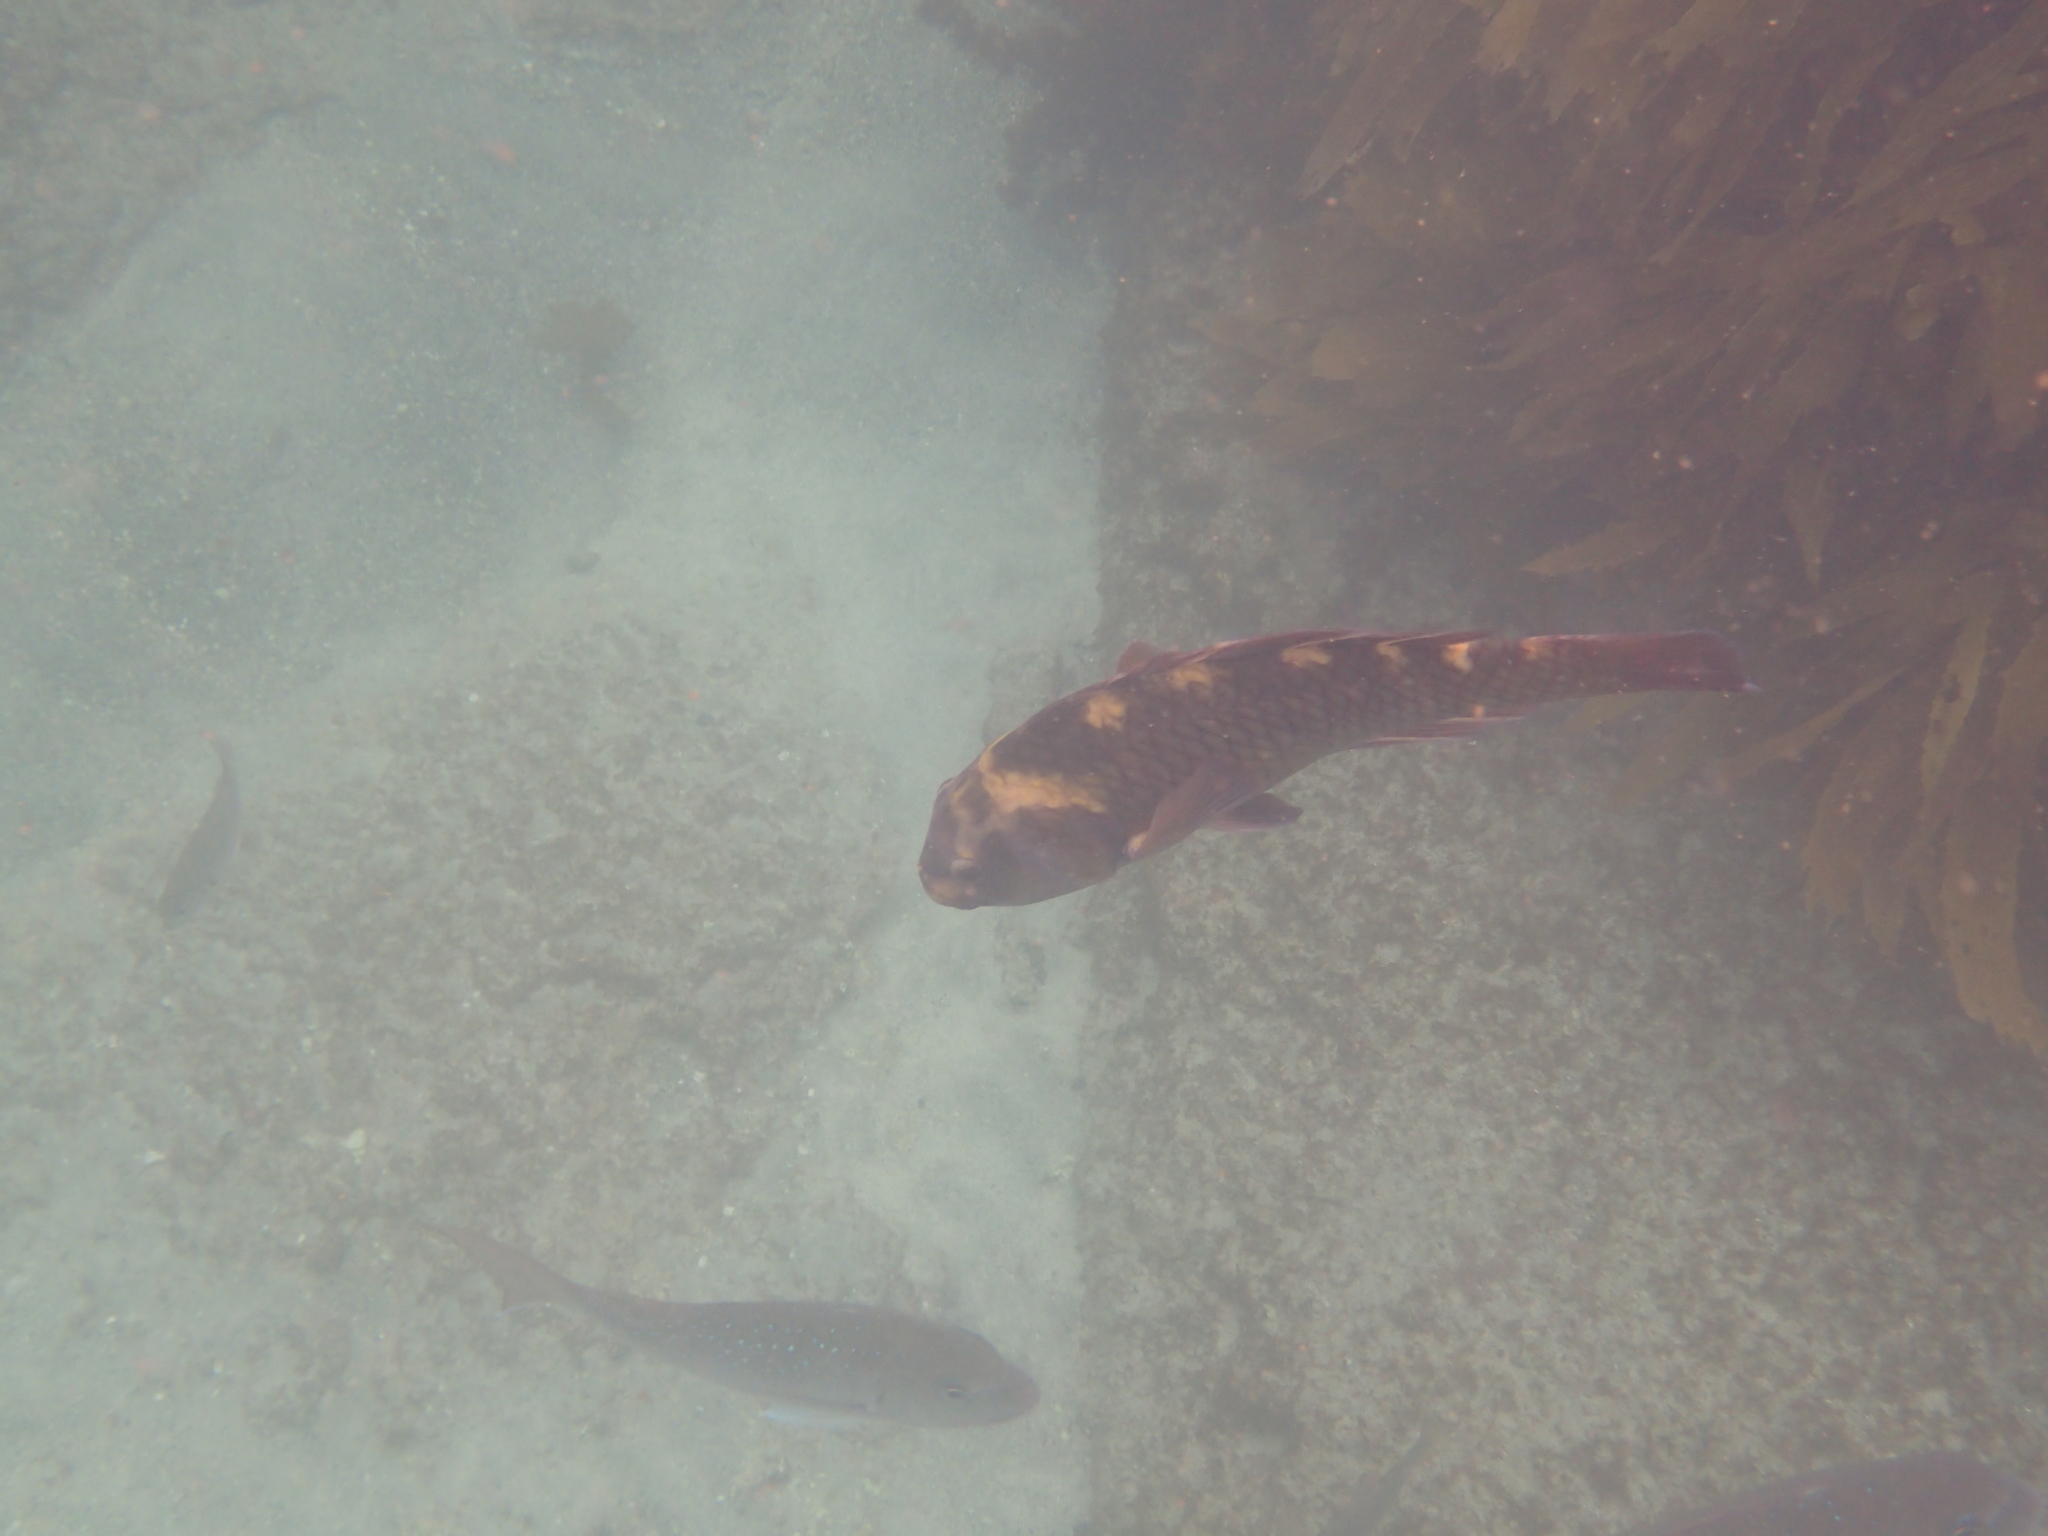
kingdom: Animalia
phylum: Chordata
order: Perciformes
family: Labridae
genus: Notolabrus
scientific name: Notolabrus fucicola
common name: Banded parrotfish
